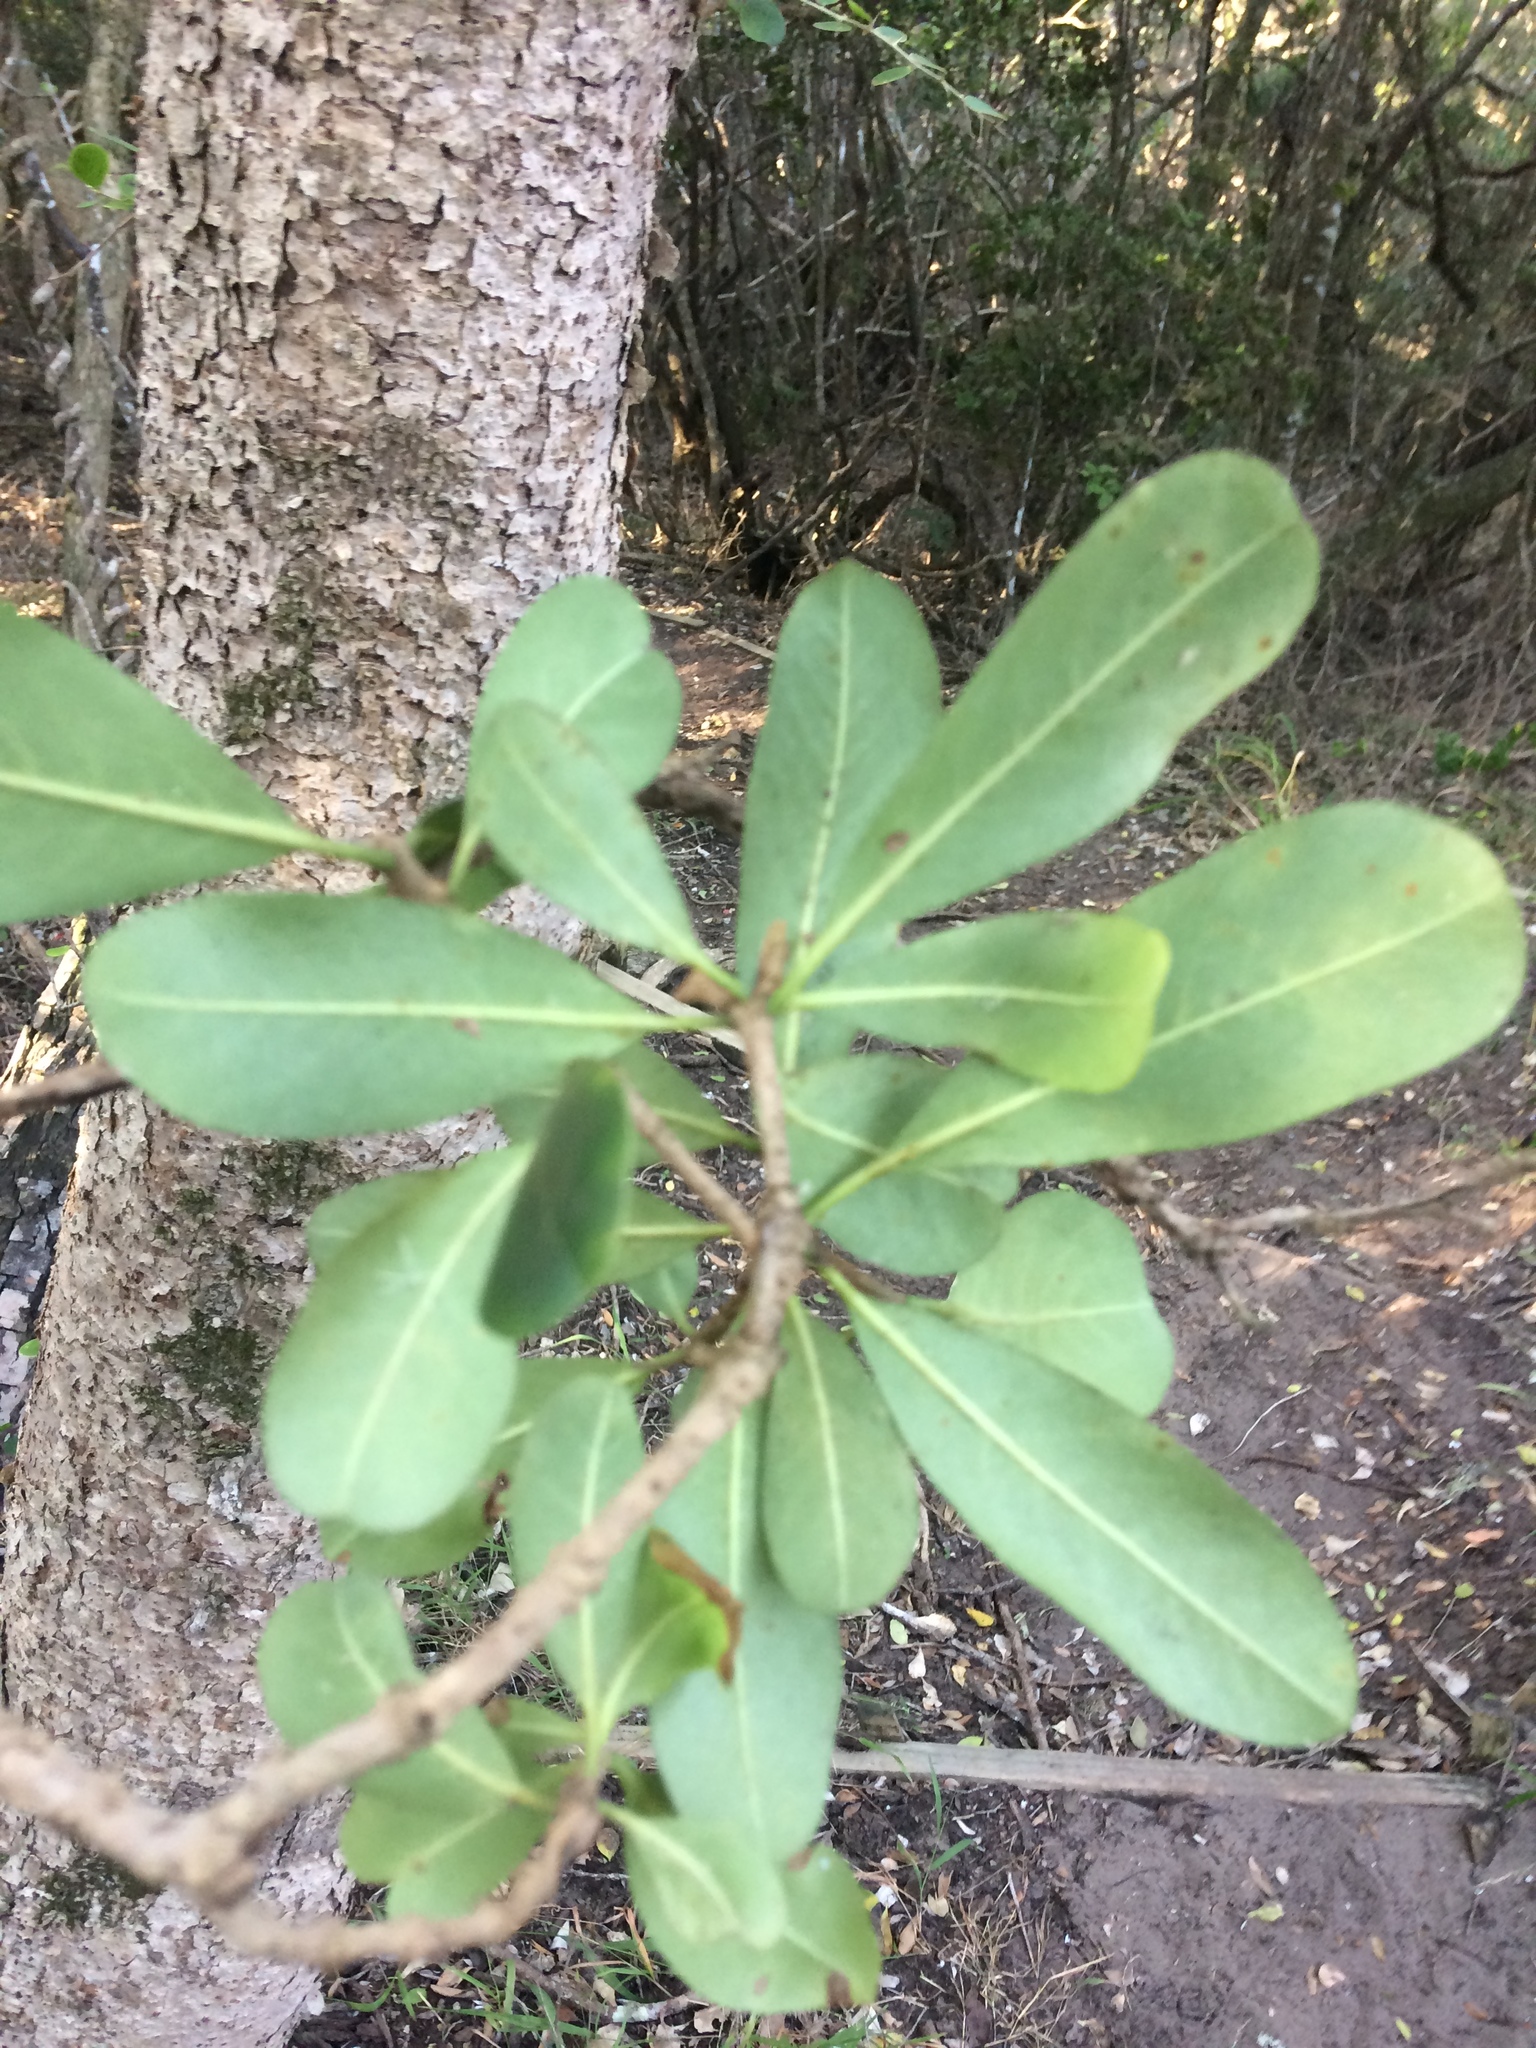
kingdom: Plantae
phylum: Tracheophyta
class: Magnoliopsida
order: Apiales
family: Pittosporaceae
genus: Pittosporum
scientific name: Pittosporum viridiflorum
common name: Cape cheesewood
